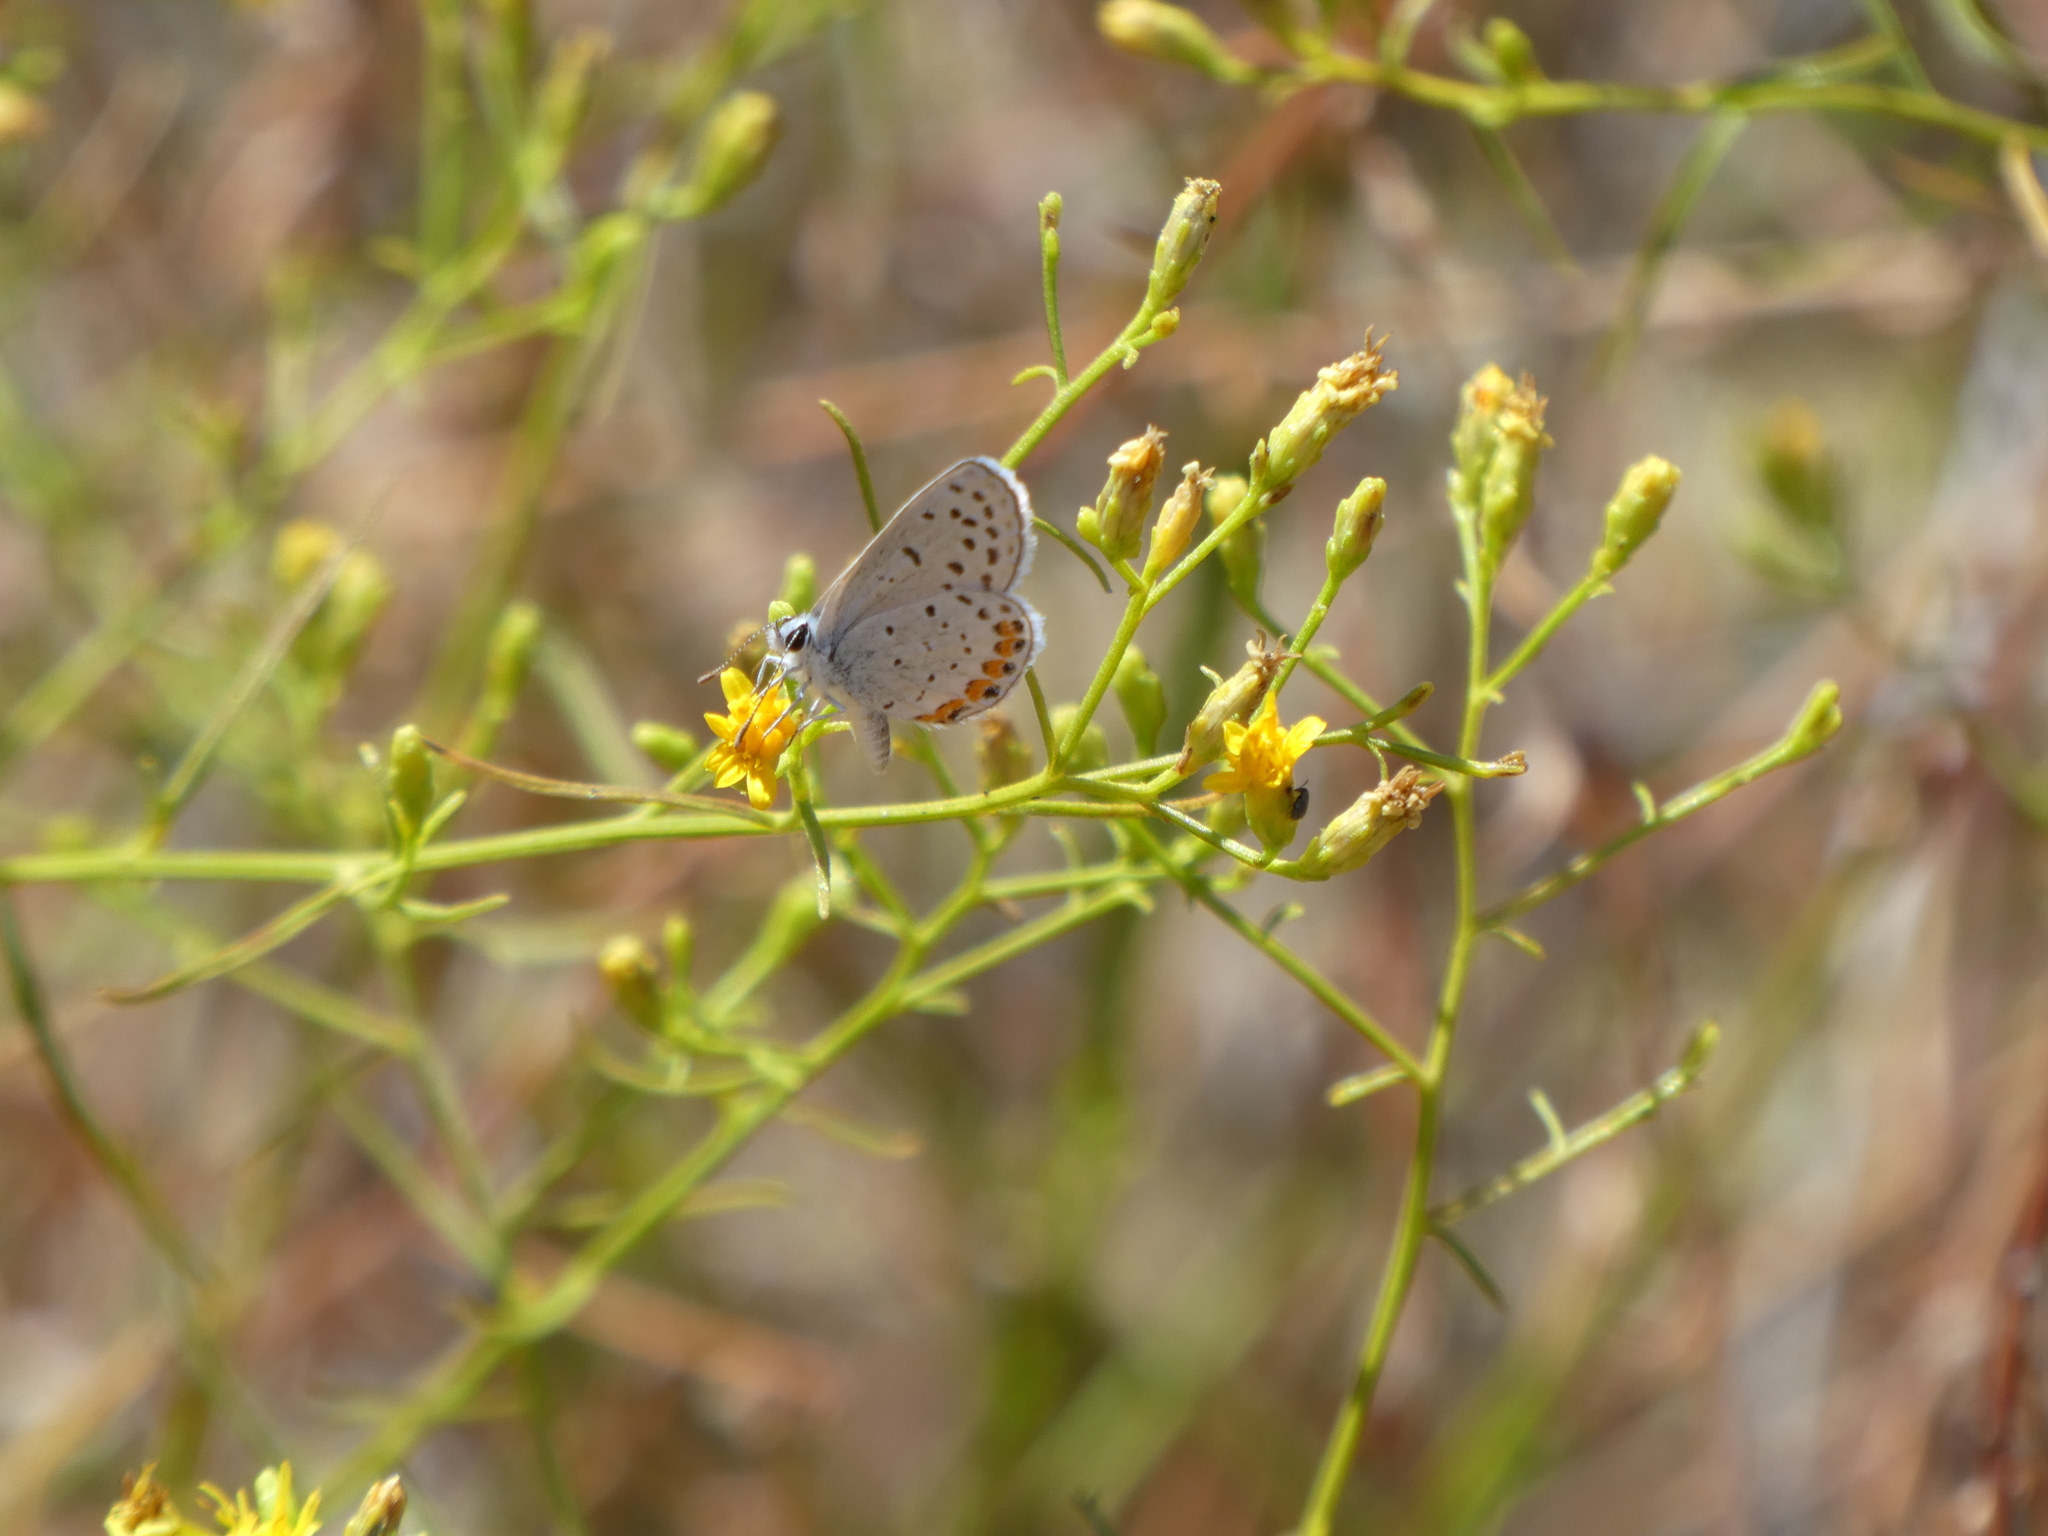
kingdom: Animalia
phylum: Arthropoda
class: Insecta
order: Lepidoptera
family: Lycaenidae
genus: Icaricia
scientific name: Icaricia acmon
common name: Acmon blue
